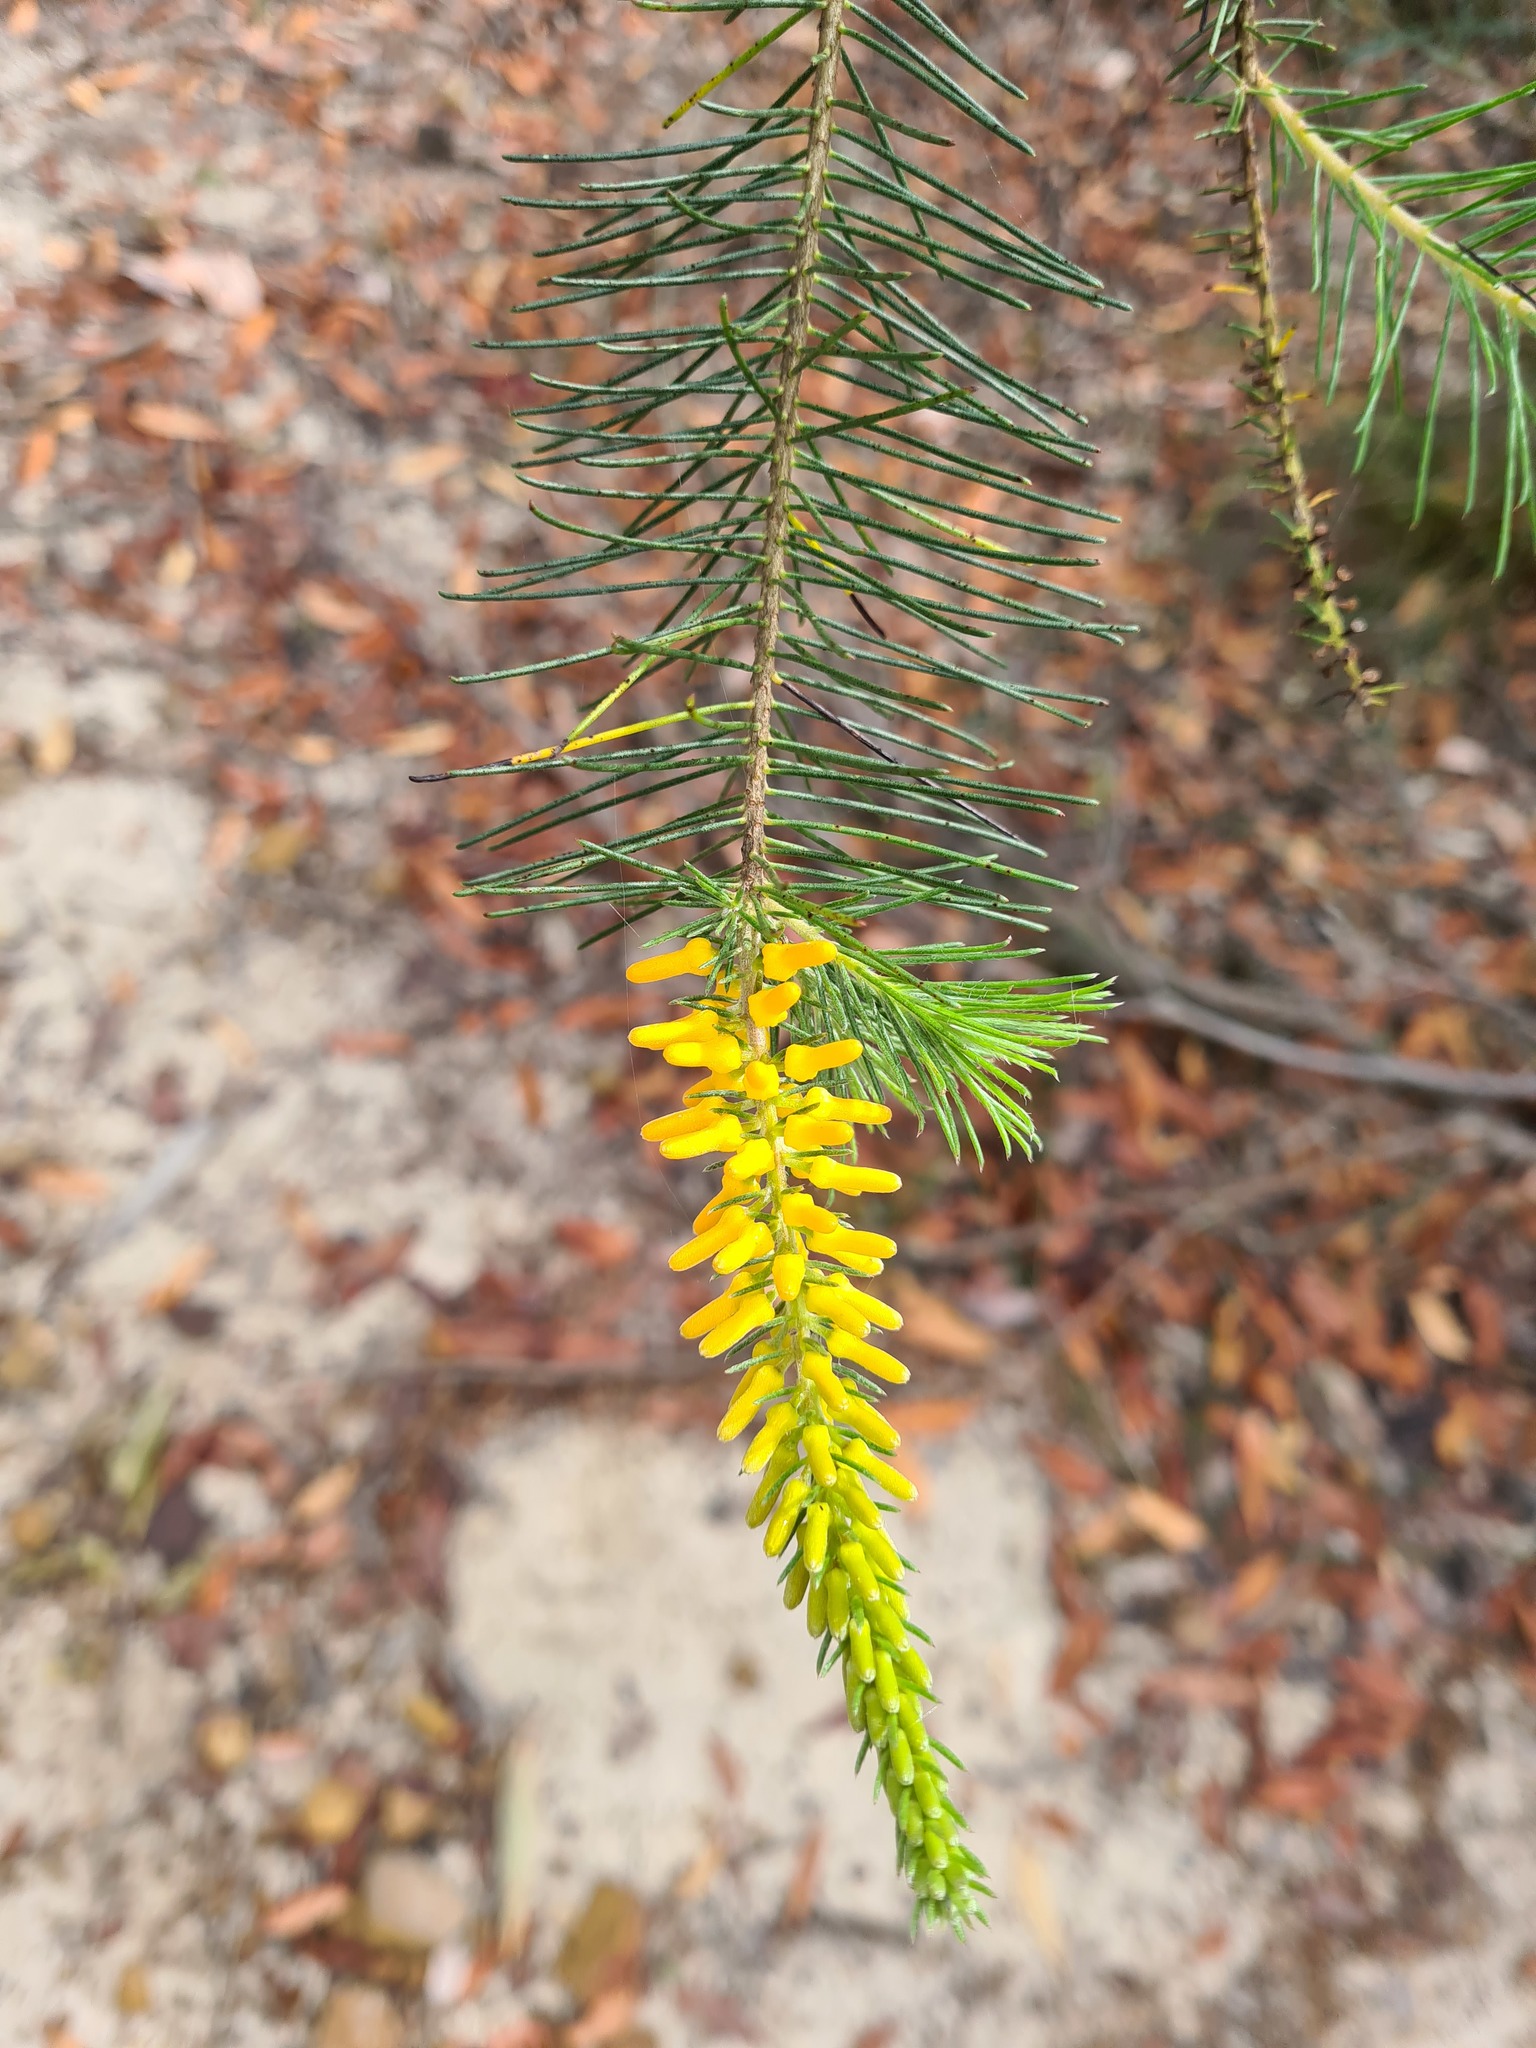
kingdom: Plantae
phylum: Tracheophyta
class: Magnoliopsida
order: Proteales
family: Proteaceae
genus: Persoonia
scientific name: Persoonia pinifolia
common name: Pine-leaf geebung
